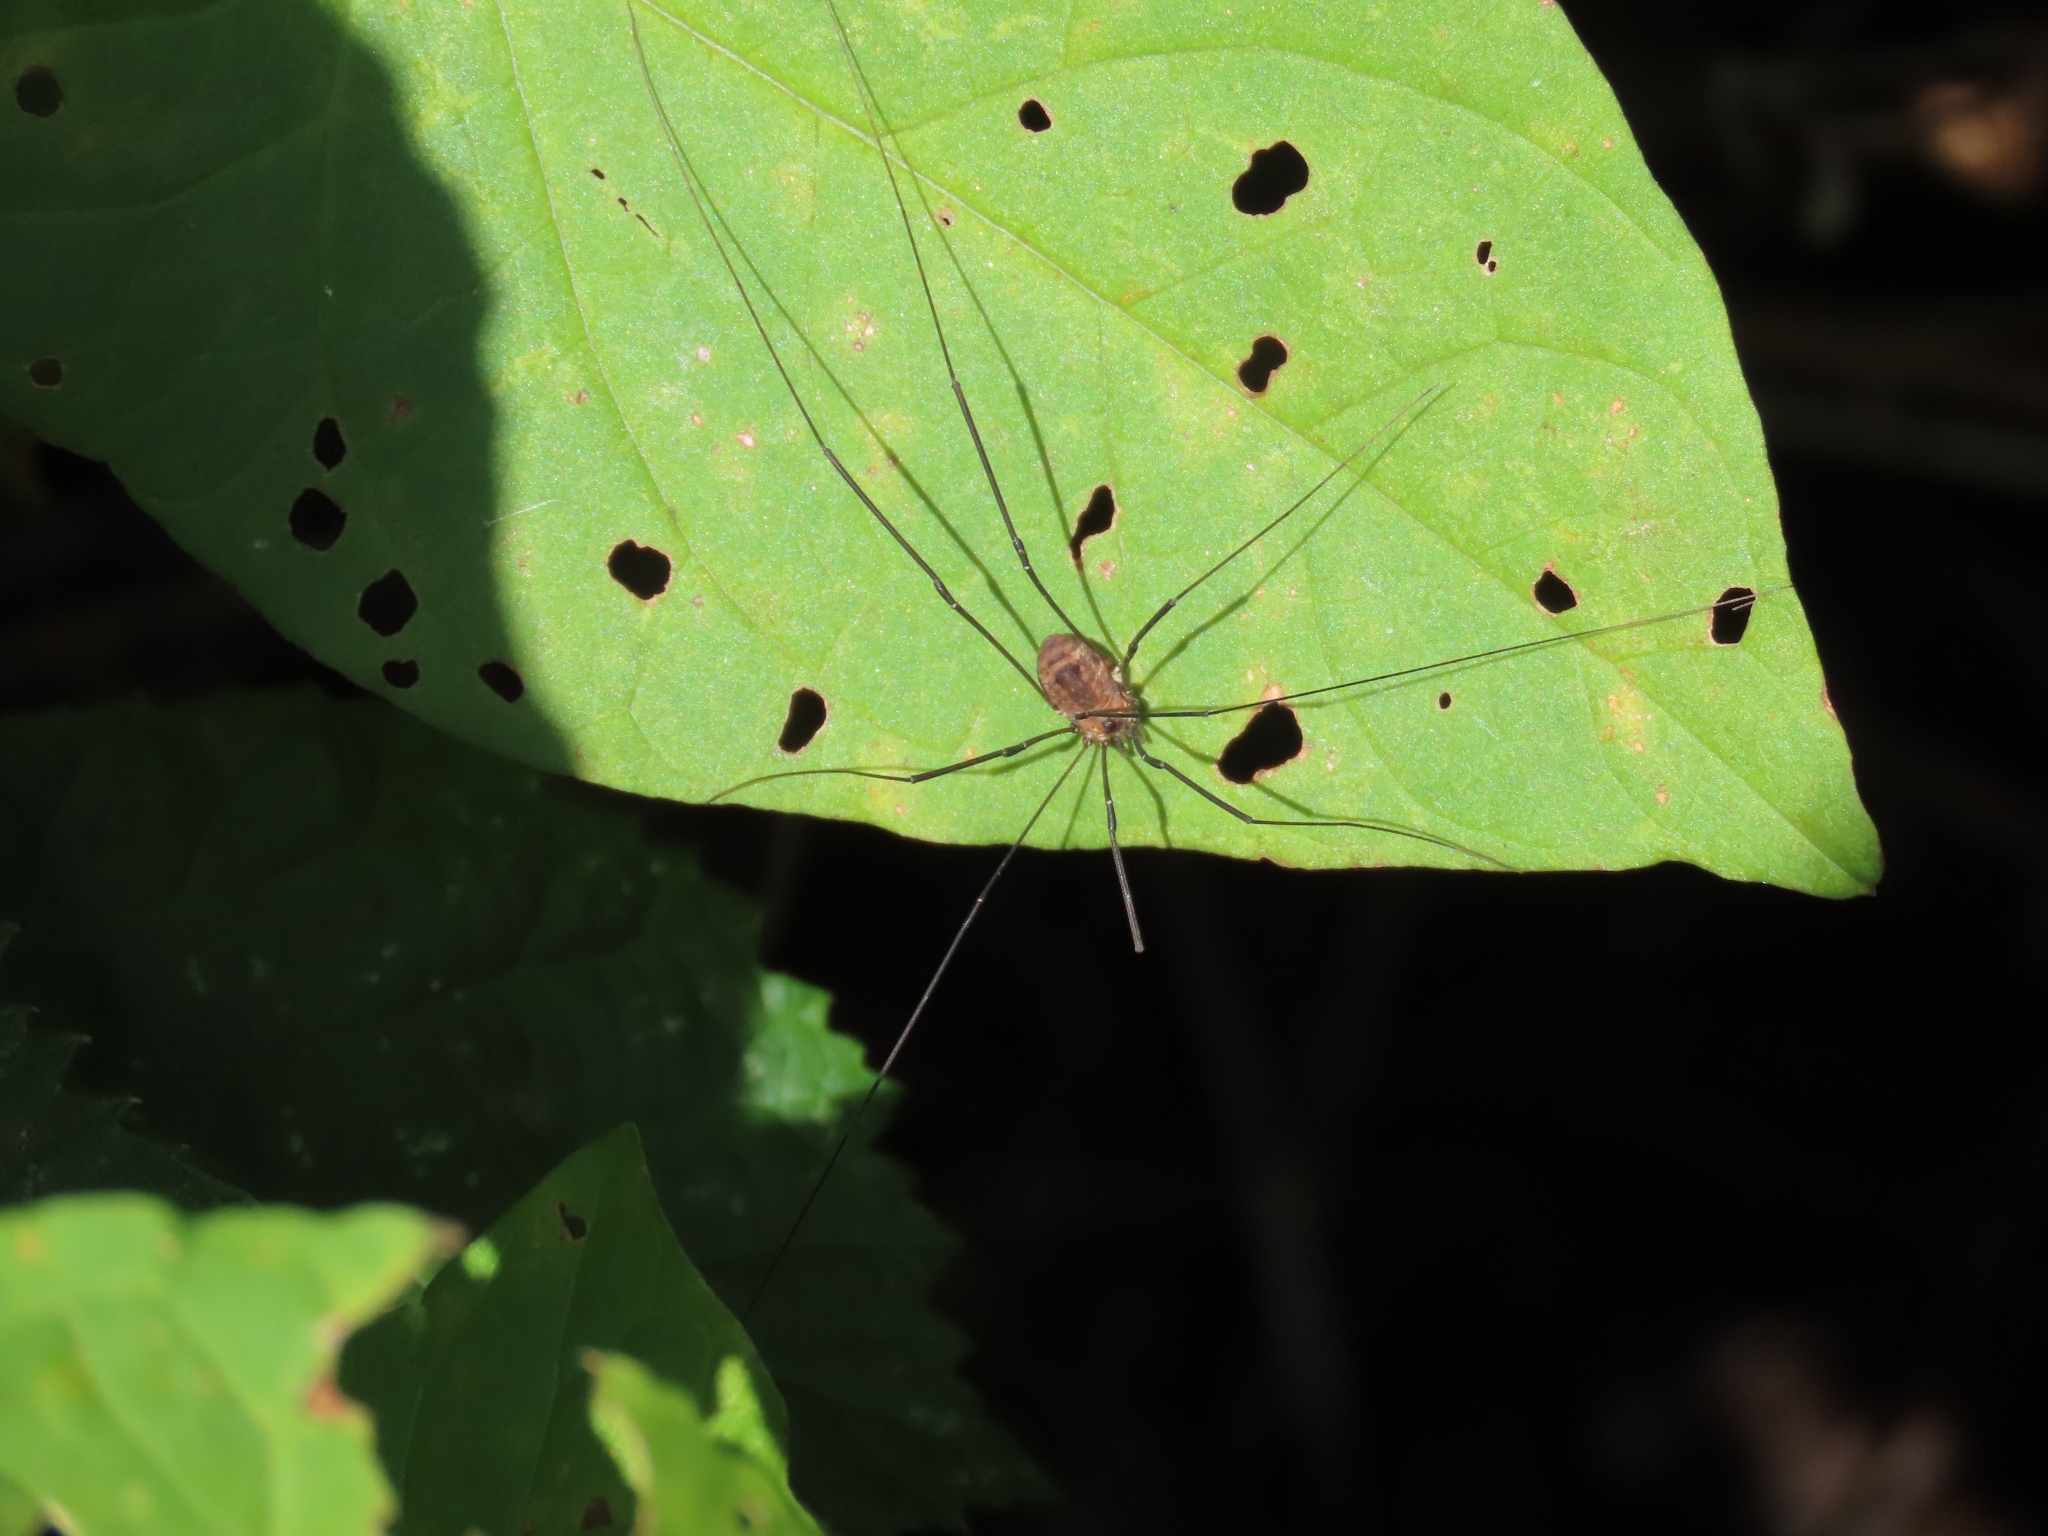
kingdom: Animalia
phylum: Arthropoda
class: Arachnida
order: Opiliones
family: Sclerosomatidae
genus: Leiobunum
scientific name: Leiobunum rotundum
